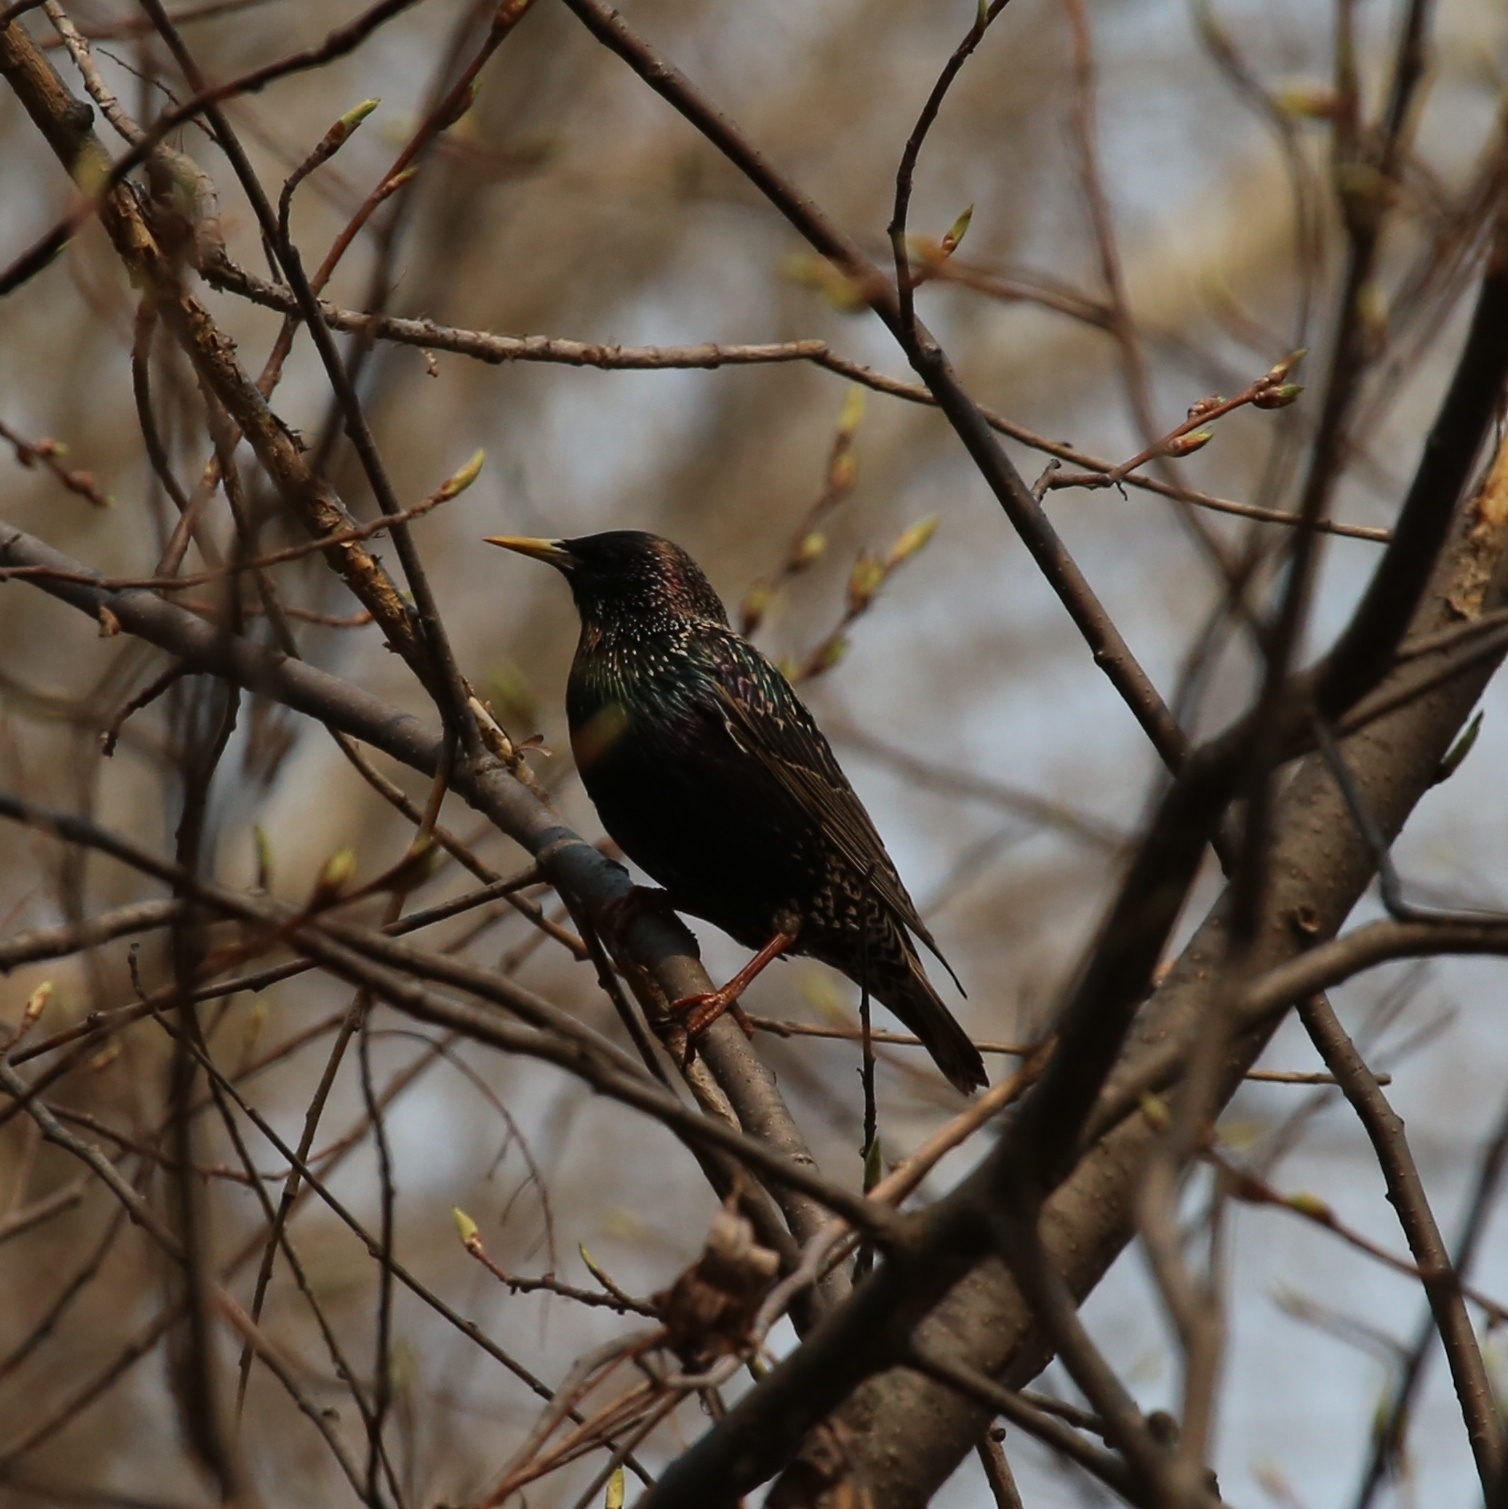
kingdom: Animalia
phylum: Chordata
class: Aves
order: Passeriformes
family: Sturnidae
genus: Sturnus
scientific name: Sturnus vulgaris
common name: Common starling
